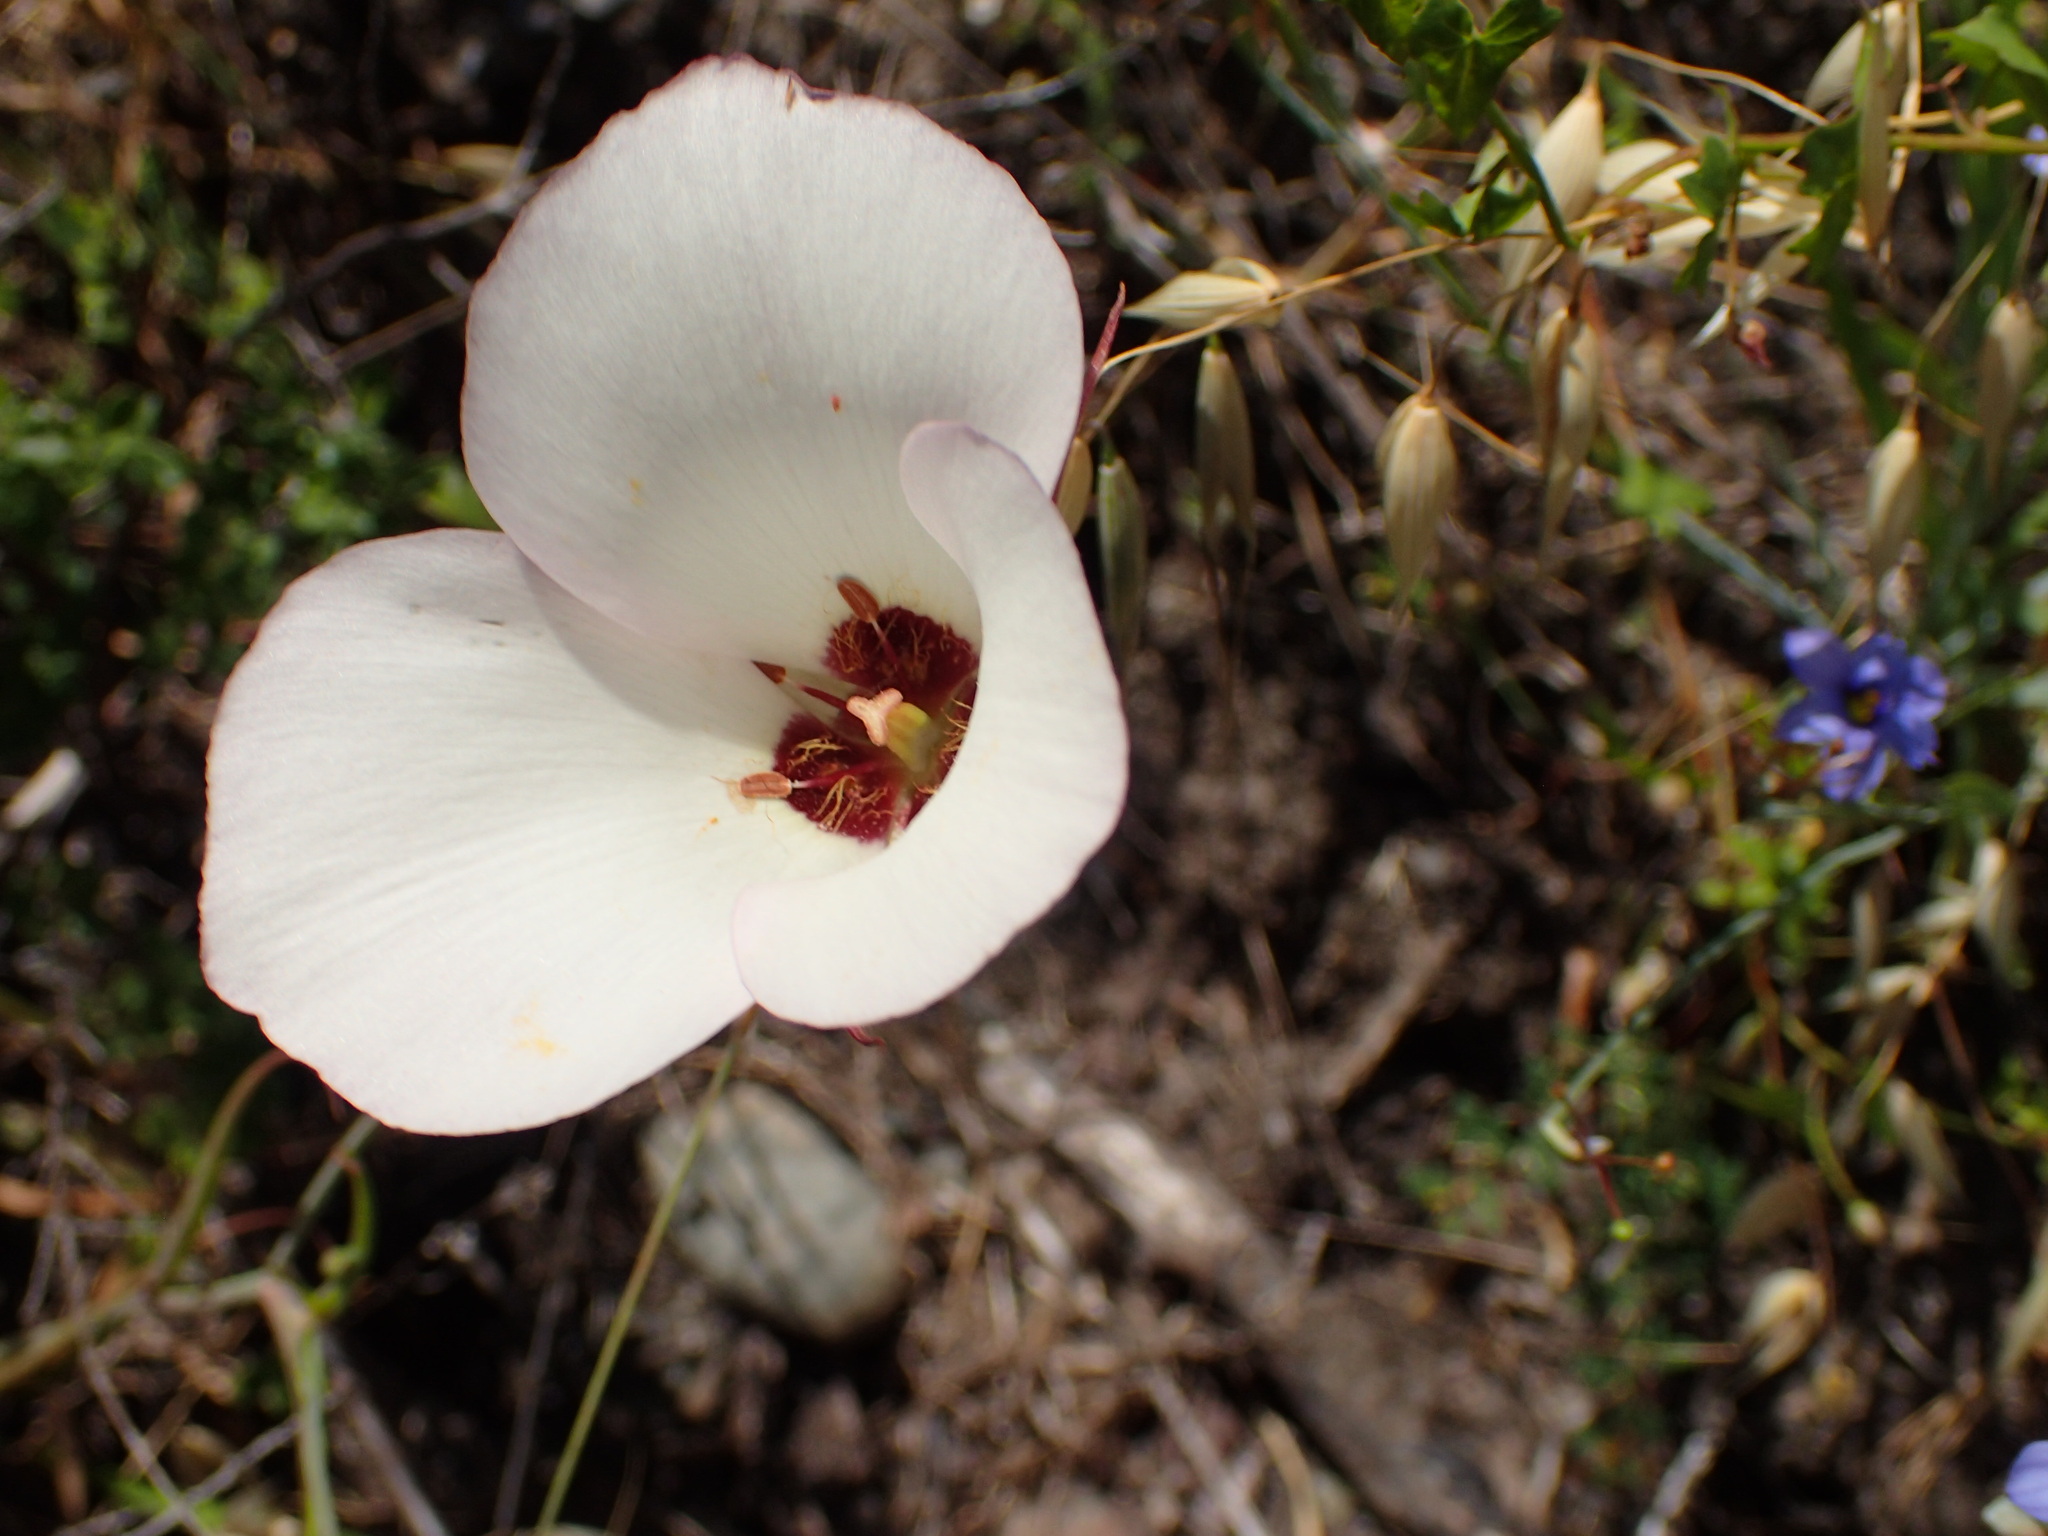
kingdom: Plantae
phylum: Tracheophyta
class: Liliopsida
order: Liliales
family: Liliaceae
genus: Calochortus
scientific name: Calochortus catalinae
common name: Catalina mariposa-lily
